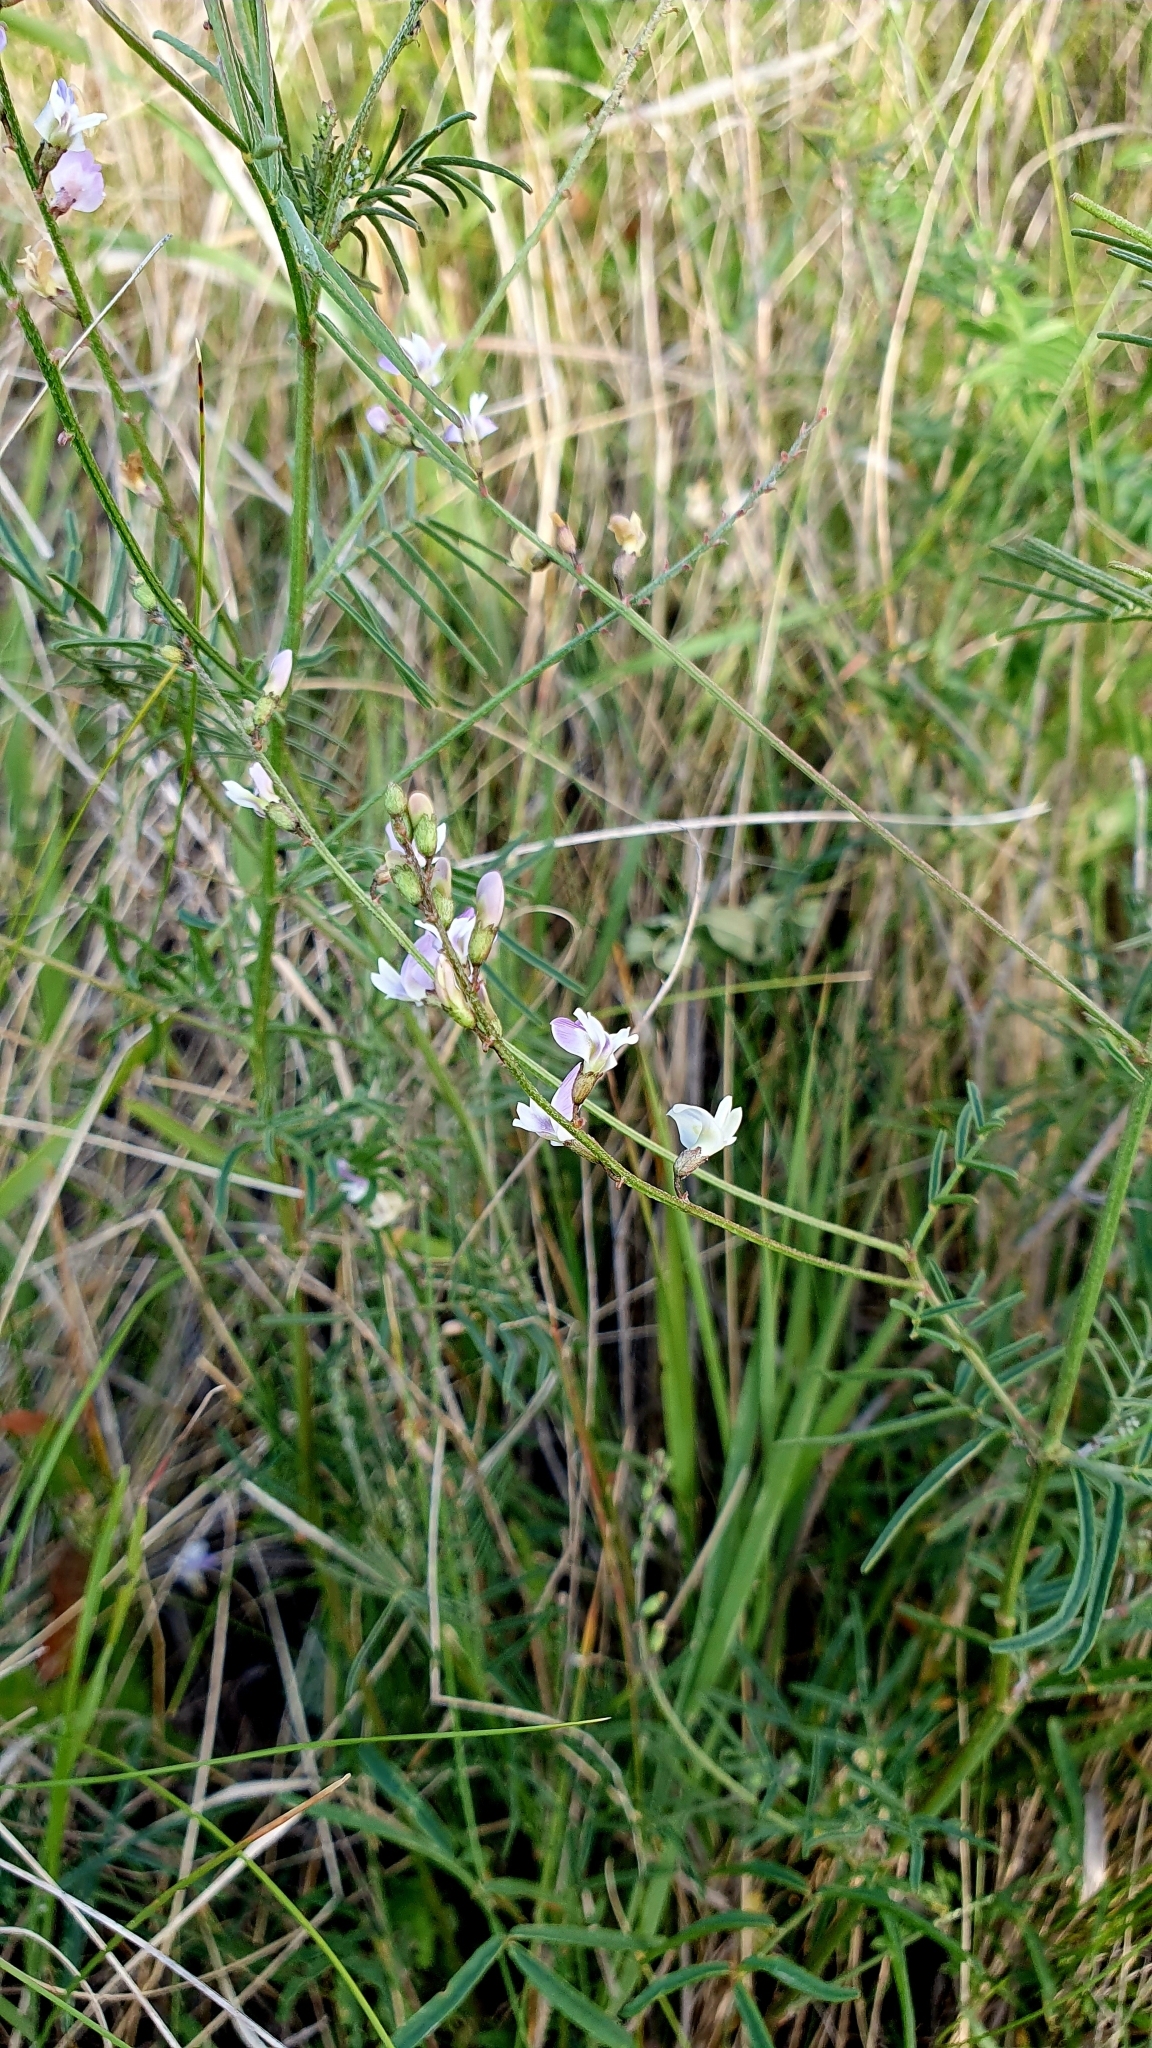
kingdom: Plantae
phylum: Tracheophyta
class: Magnoliopsida
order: Fabales
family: Fabaceae
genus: Astragalus
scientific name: Astragalus austriacus
